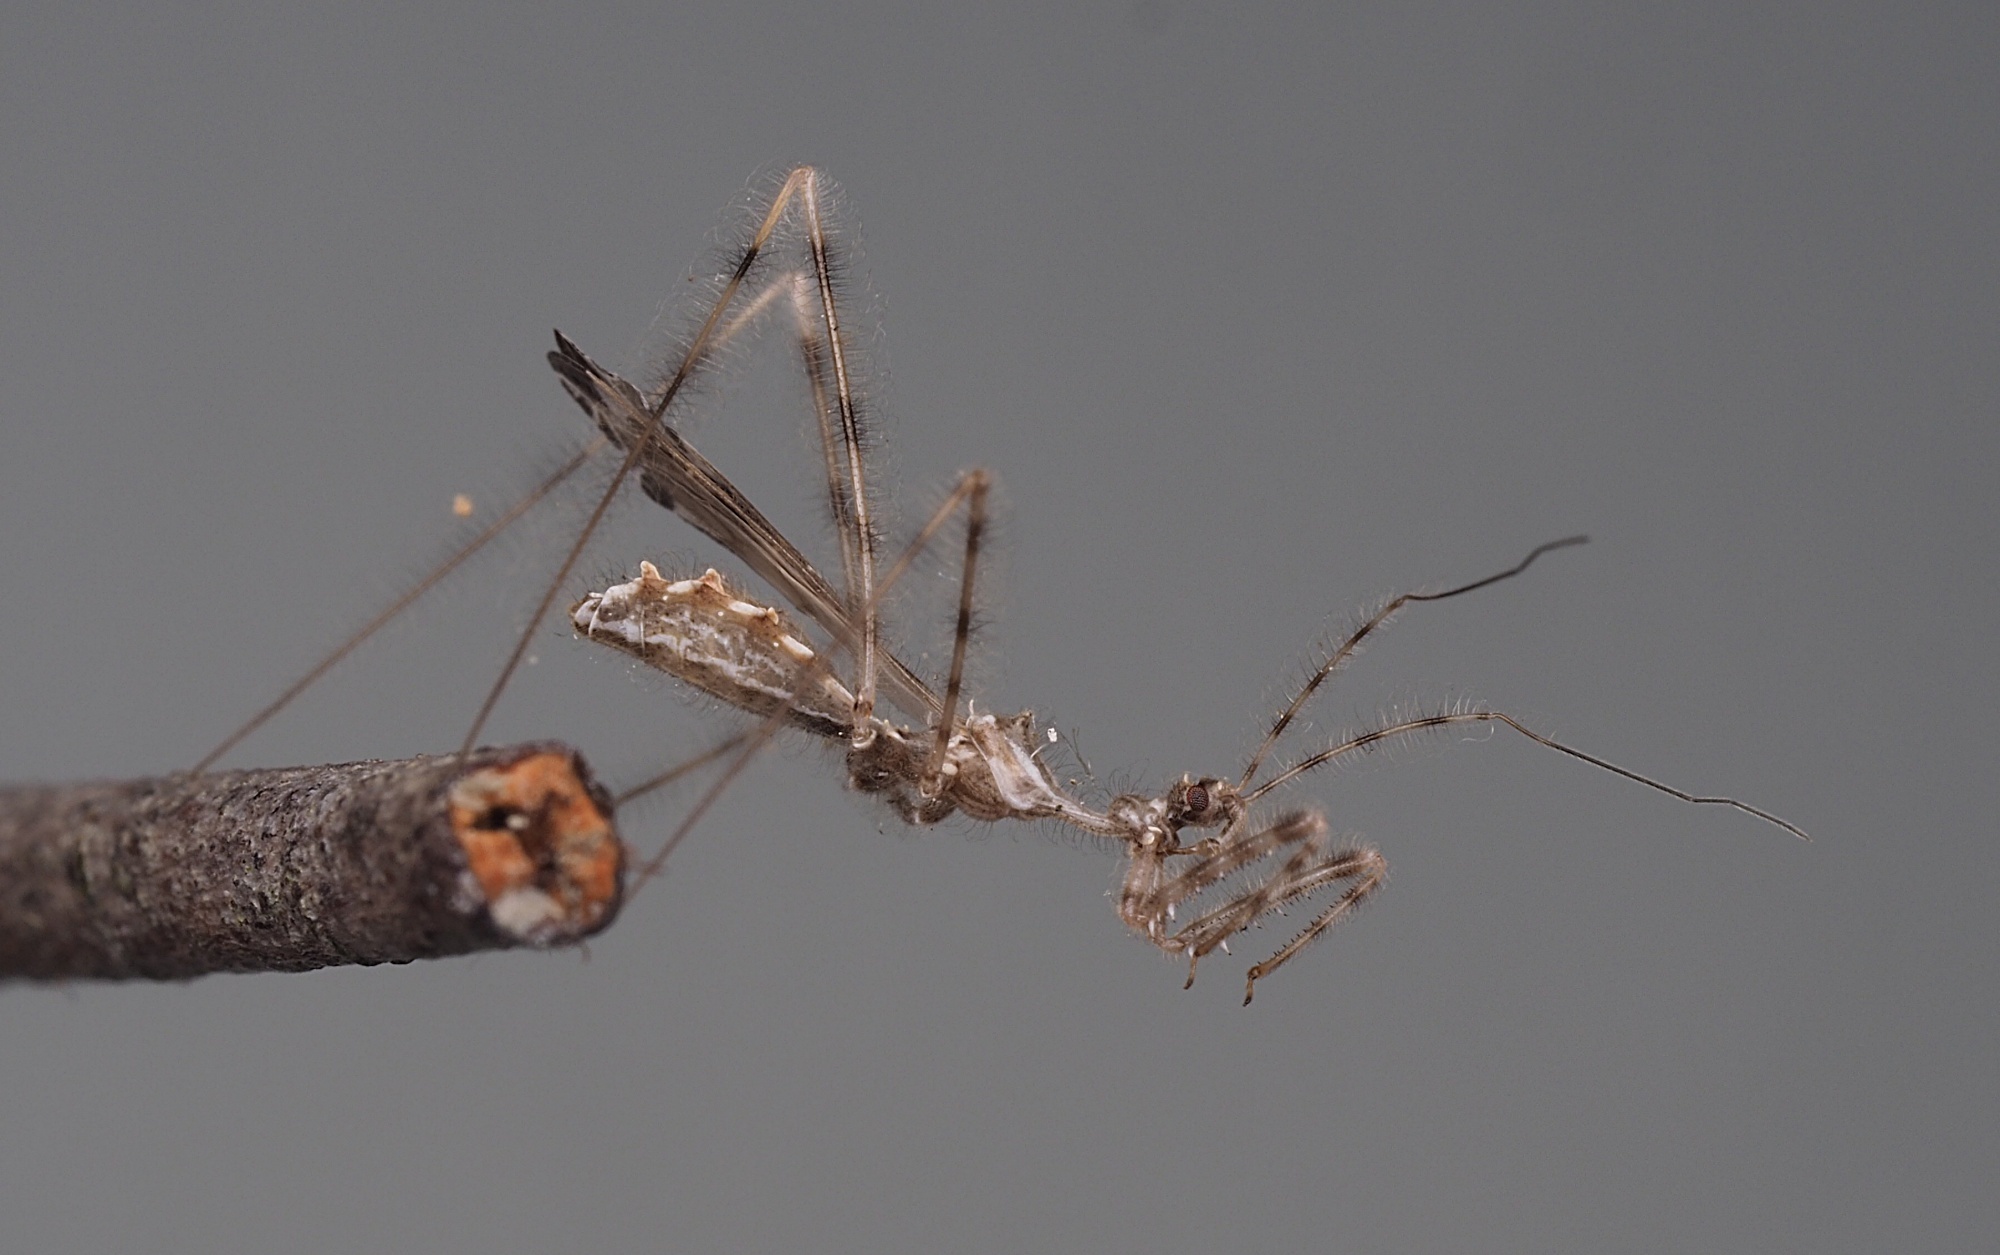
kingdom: Animalia
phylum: Arthropoda
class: Insecta
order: Hemiptera
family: Reduviidae
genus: Stenolemus
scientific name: Stenolemus fraterculus
